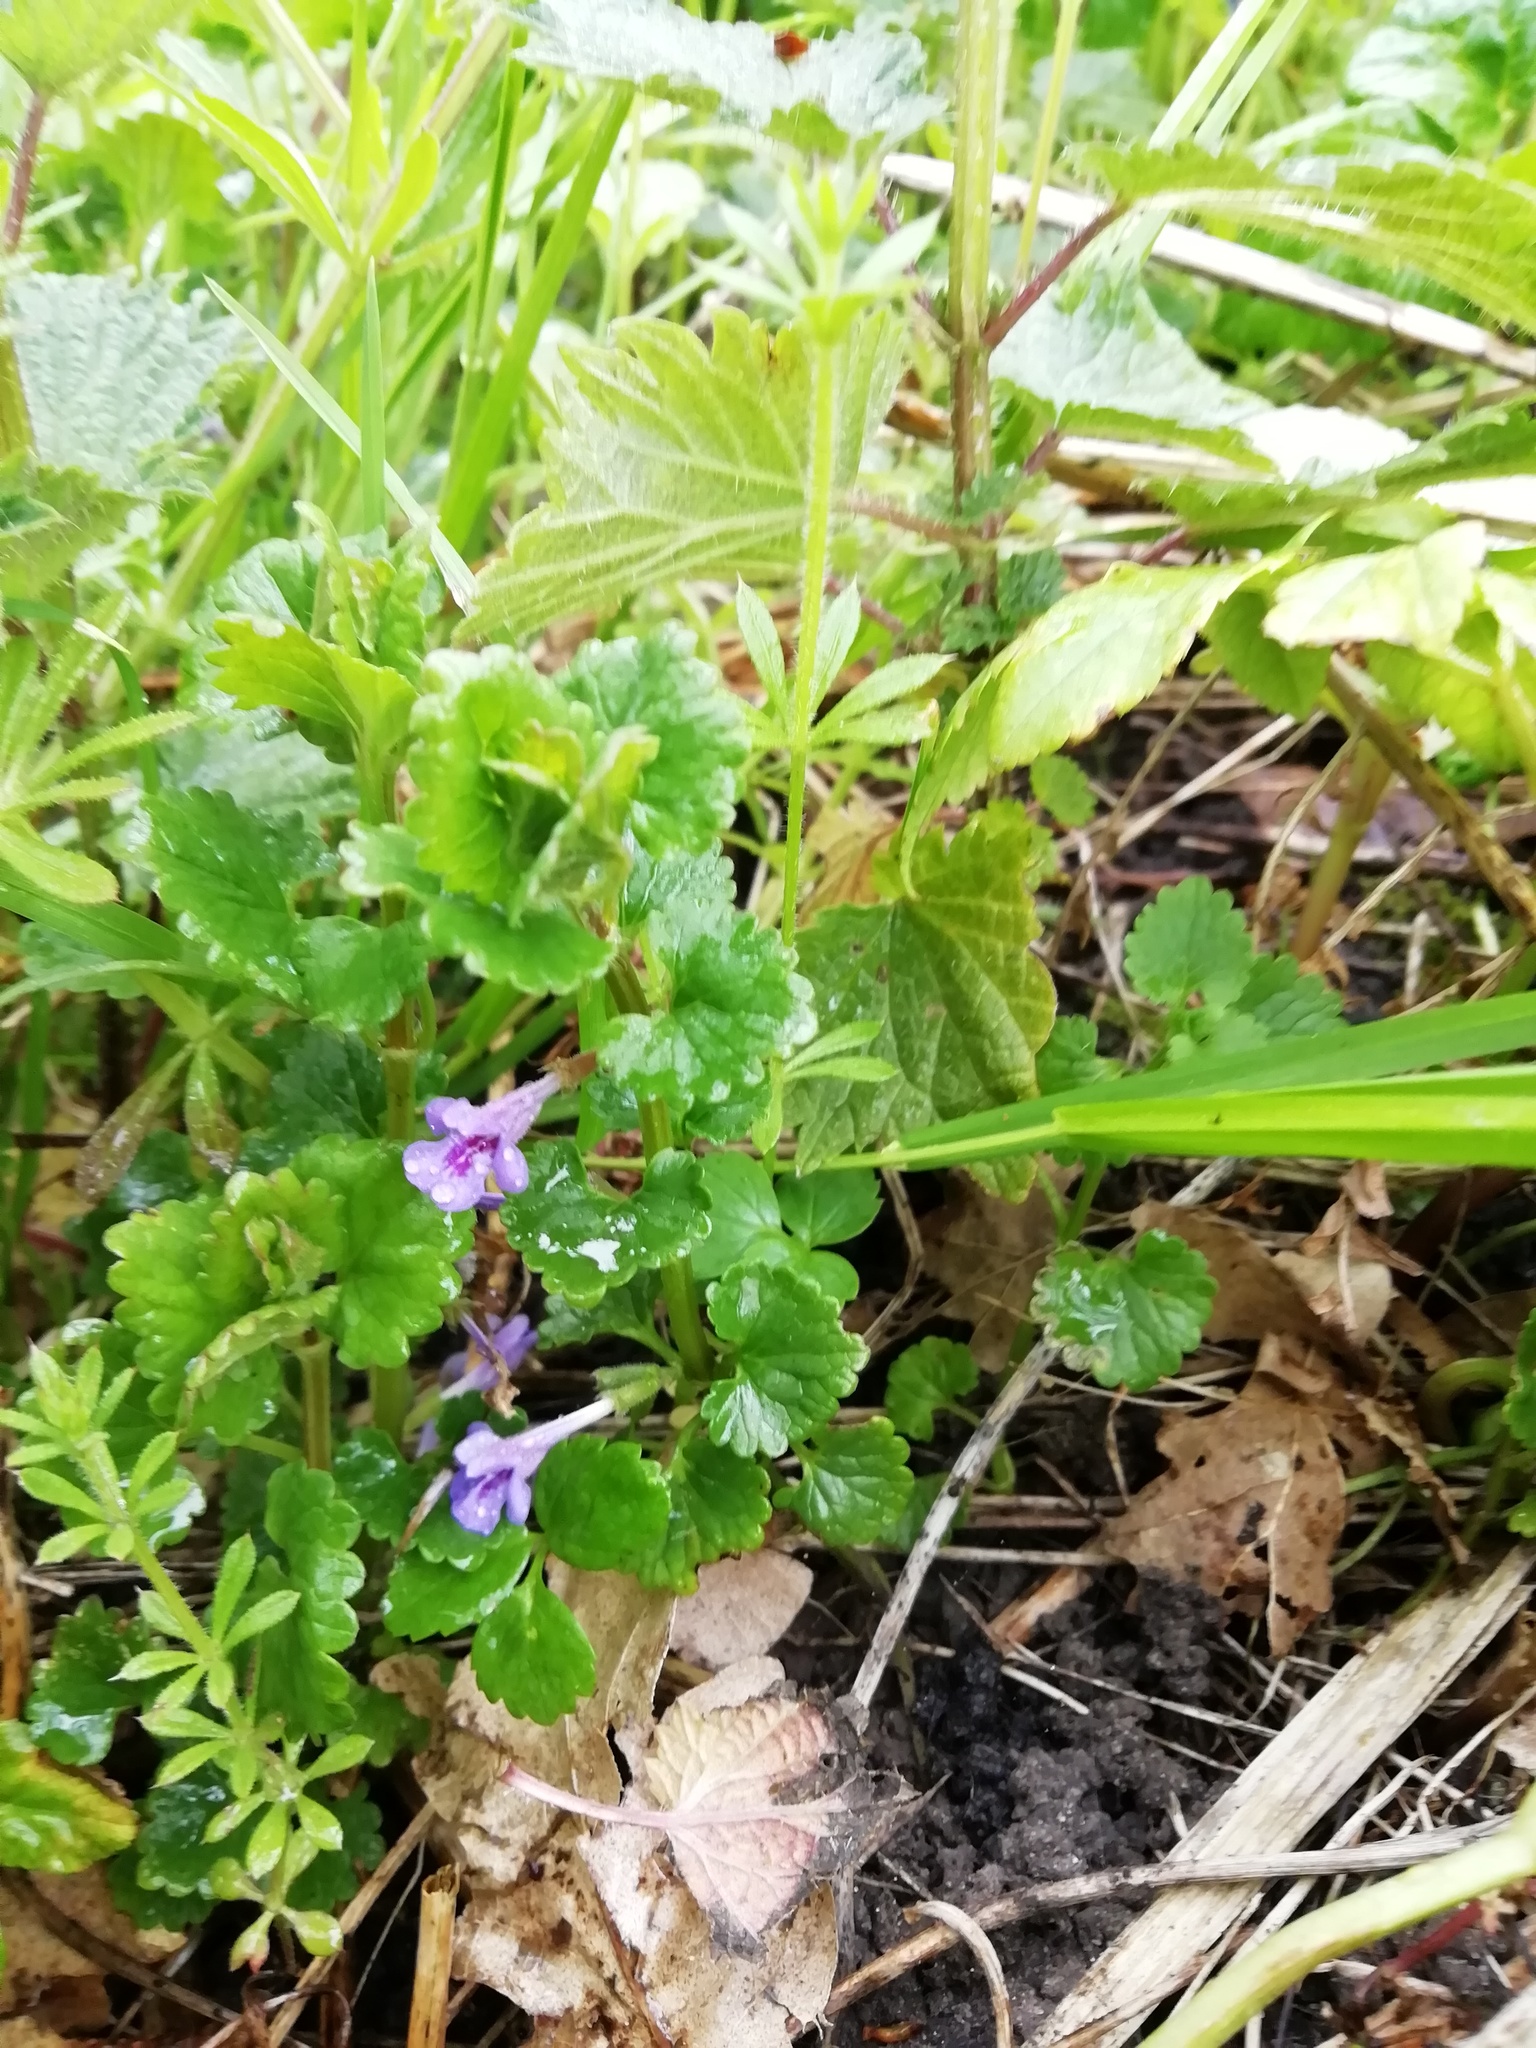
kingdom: Plantae
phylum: Tracheophyta
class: Magnoliopsida
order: Lamiales
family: Lamiaceae
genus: Glechoma
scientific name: Glechoma hederacea
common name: Ground ivy
